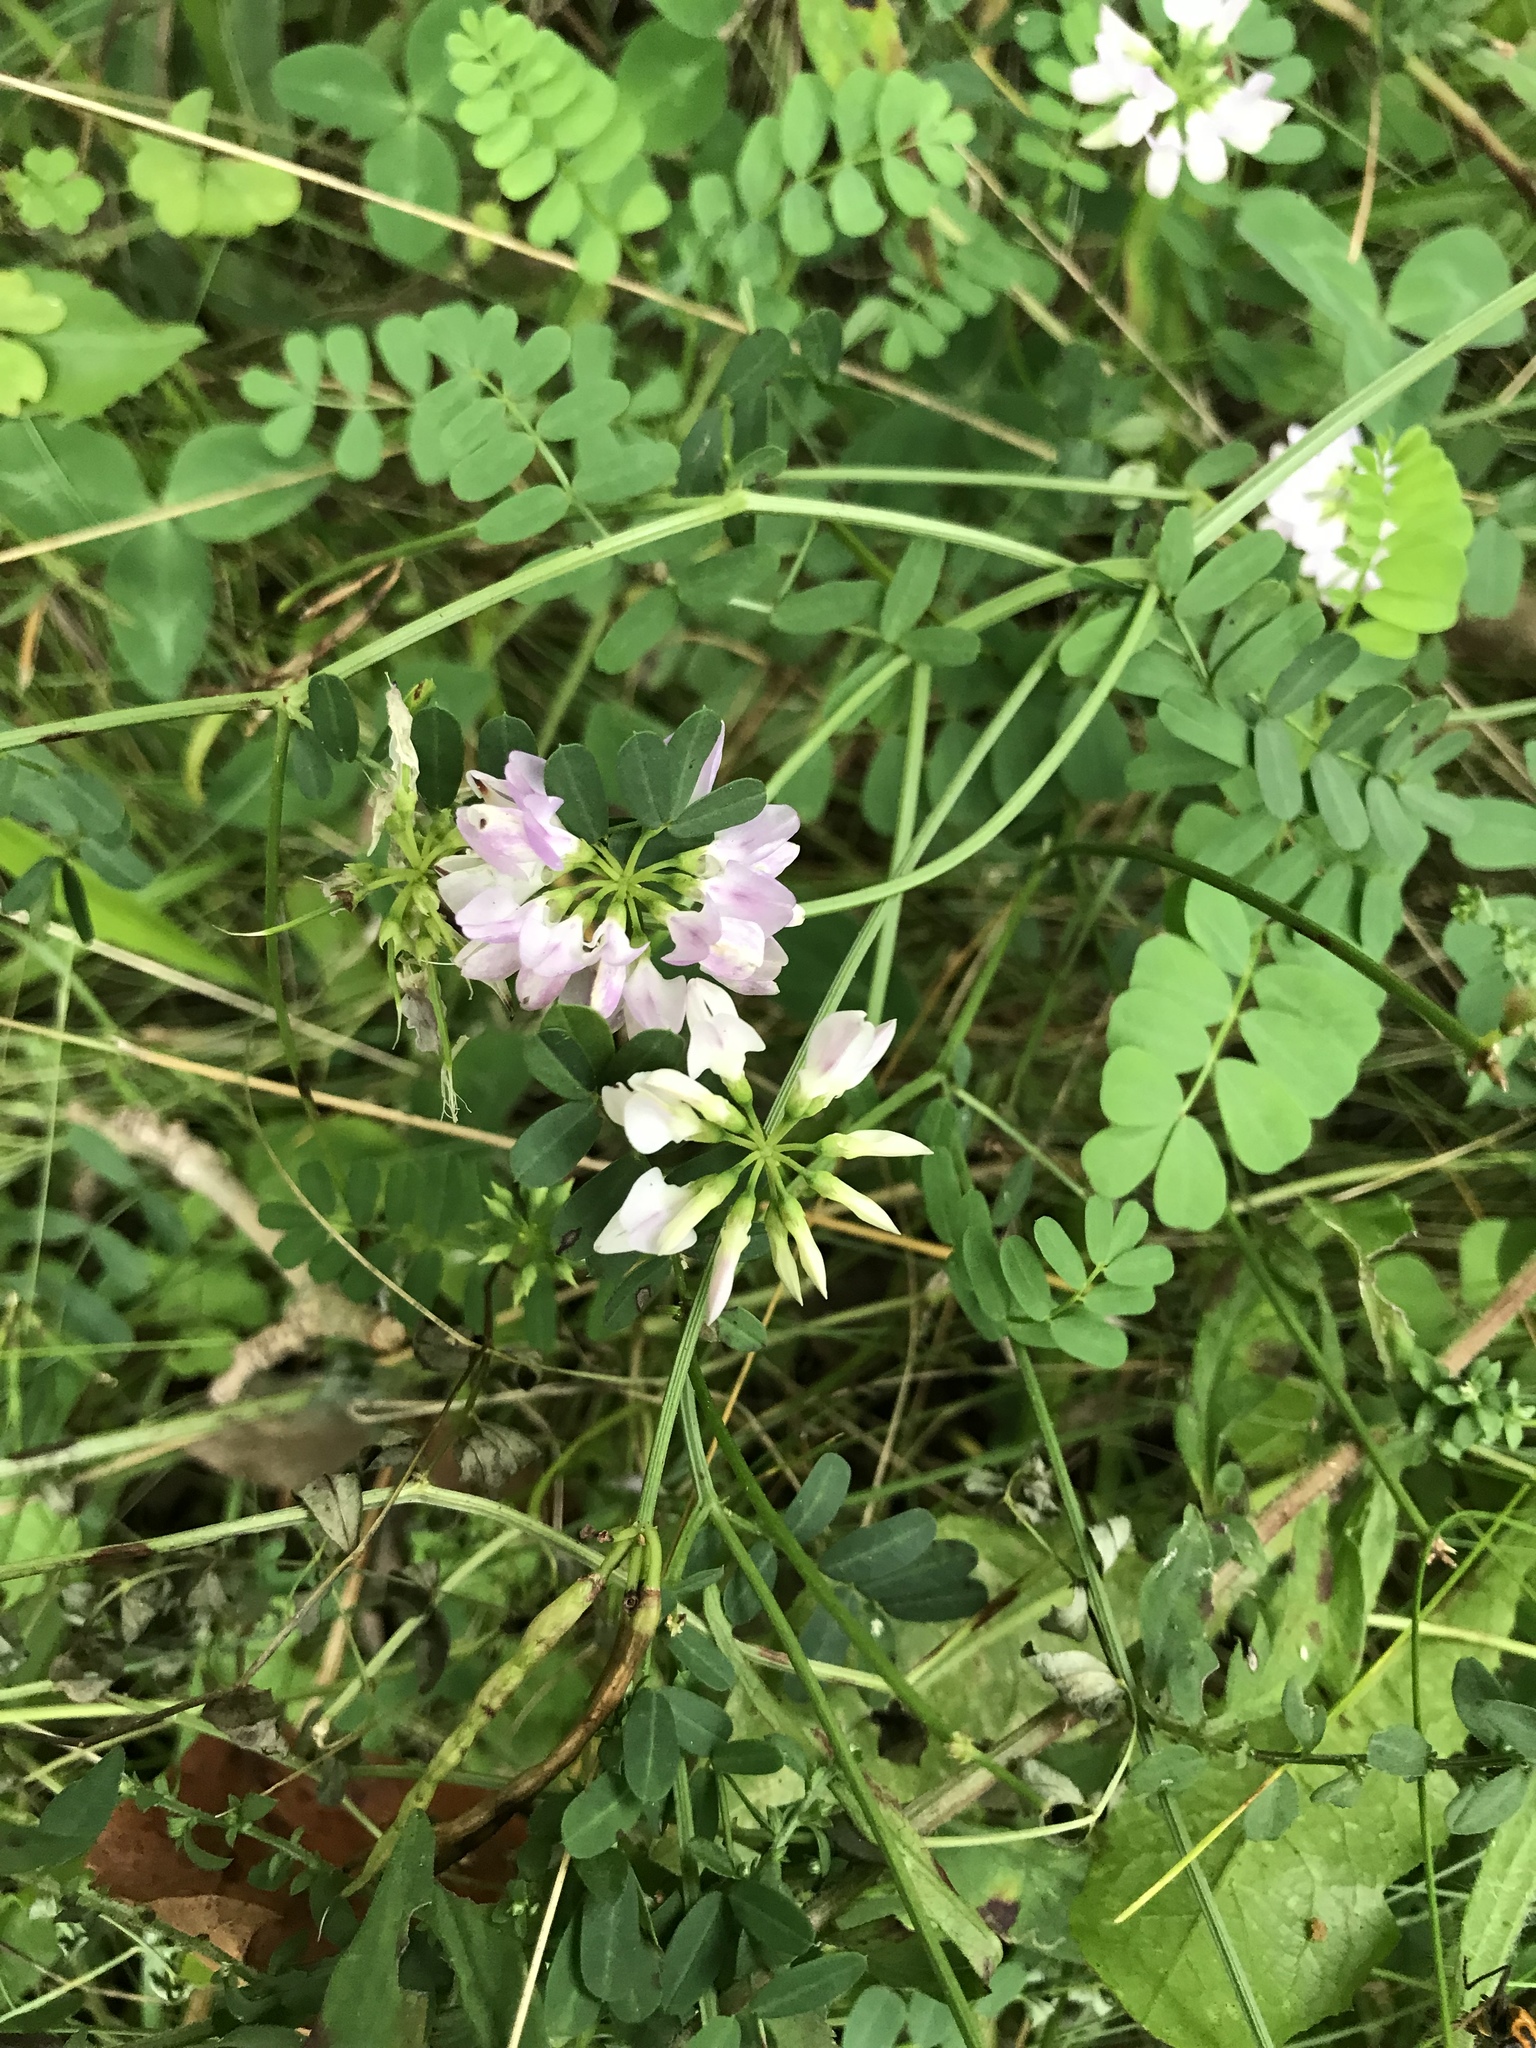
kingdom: Plantae
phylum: Tracheophyta
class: Magnoliopsida
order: Fabales
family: Fabaceae
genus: Coronilla
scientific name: Coronilla varia
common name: Crownvetch
